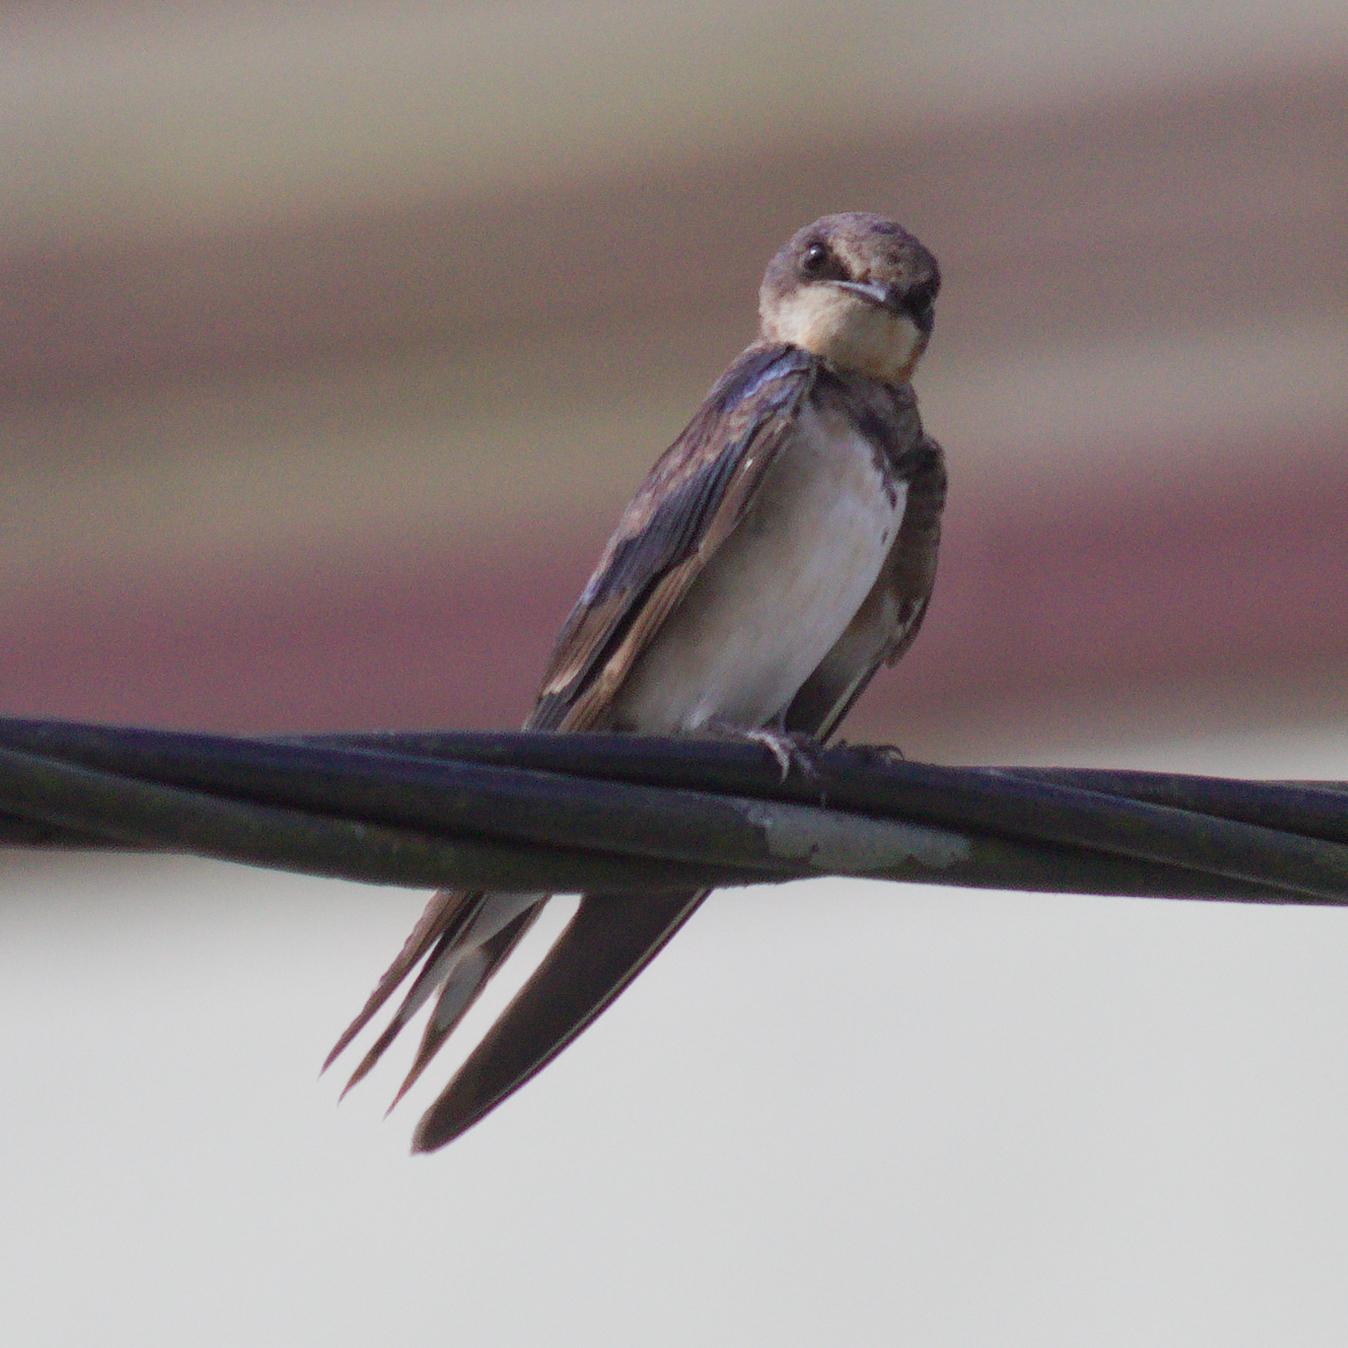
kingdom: Animalia
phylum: Chordata
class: Aves
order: Passeriformes
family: Hirundinidae
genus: Hirundo
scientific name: Hirundo rustica
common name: Barn swallow
